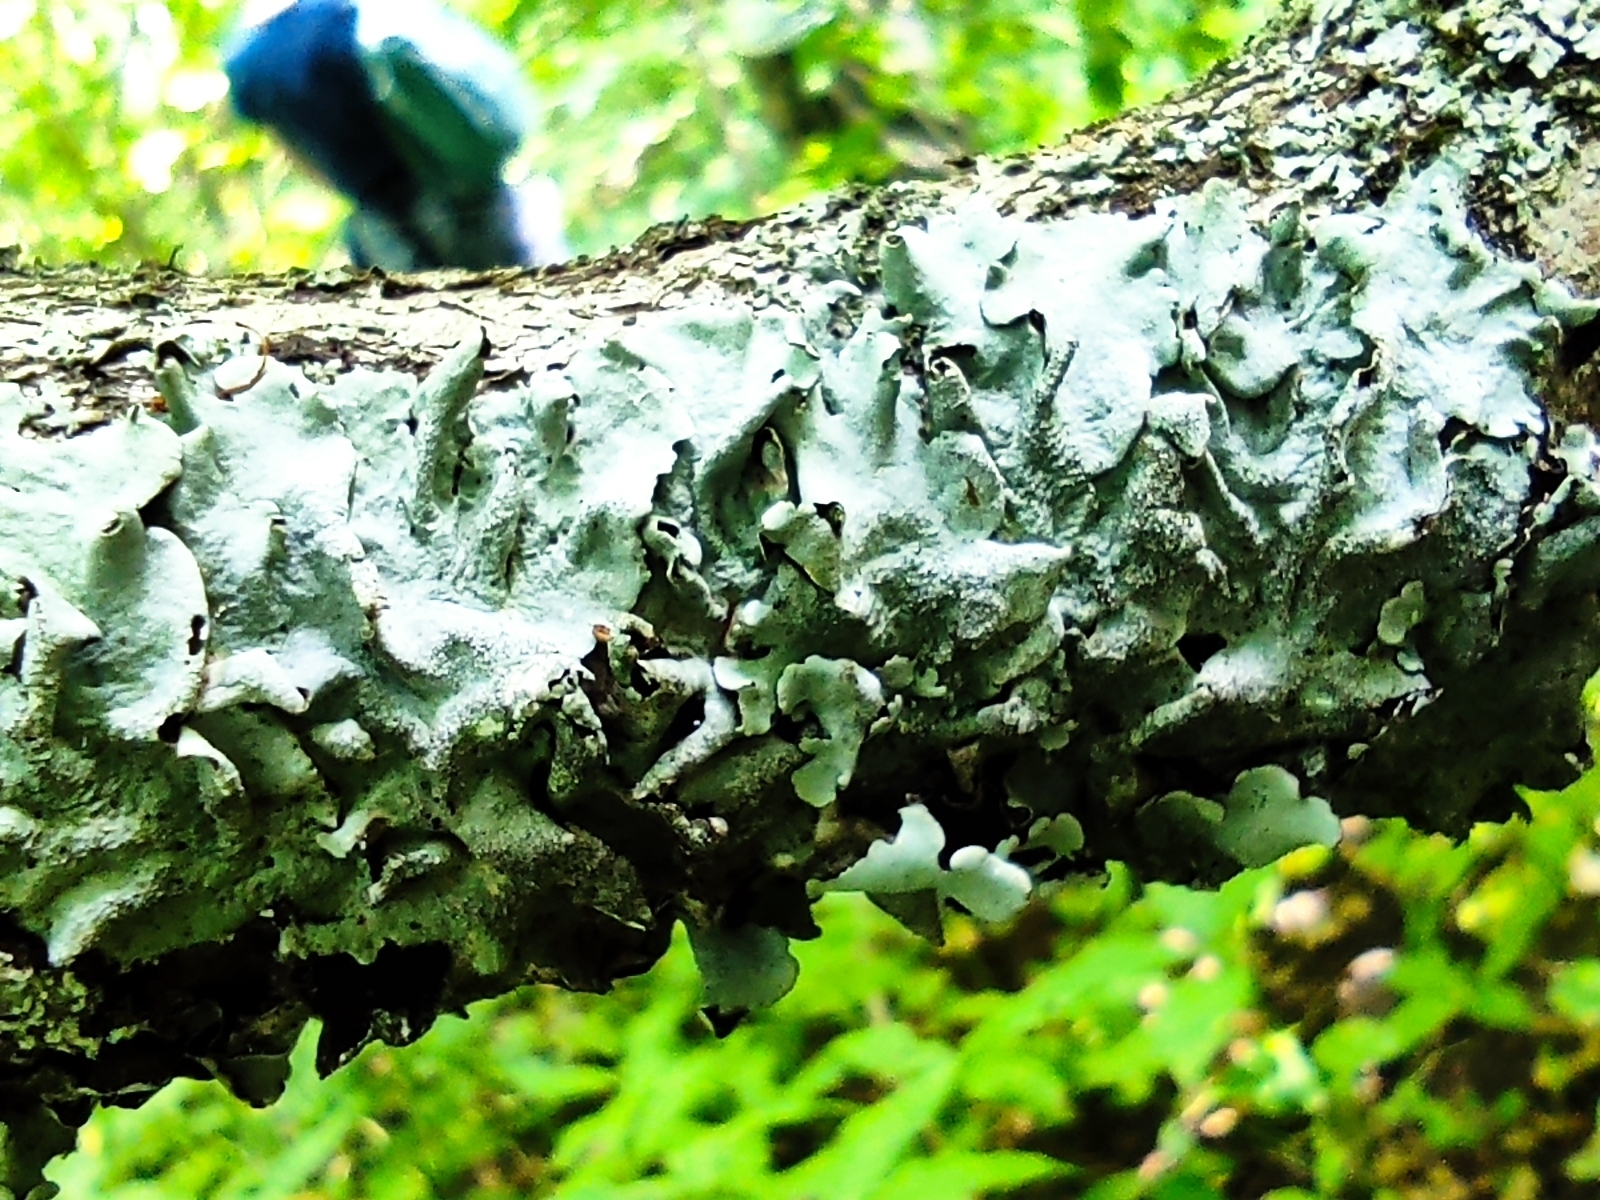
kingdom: Fungi
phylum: Ascomycota
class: Lecanoromycetes
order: Lecanorales
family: Parmeliaceae
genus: Parmelina
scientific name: Parmelina tiliacea
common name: Linden shield lichen
